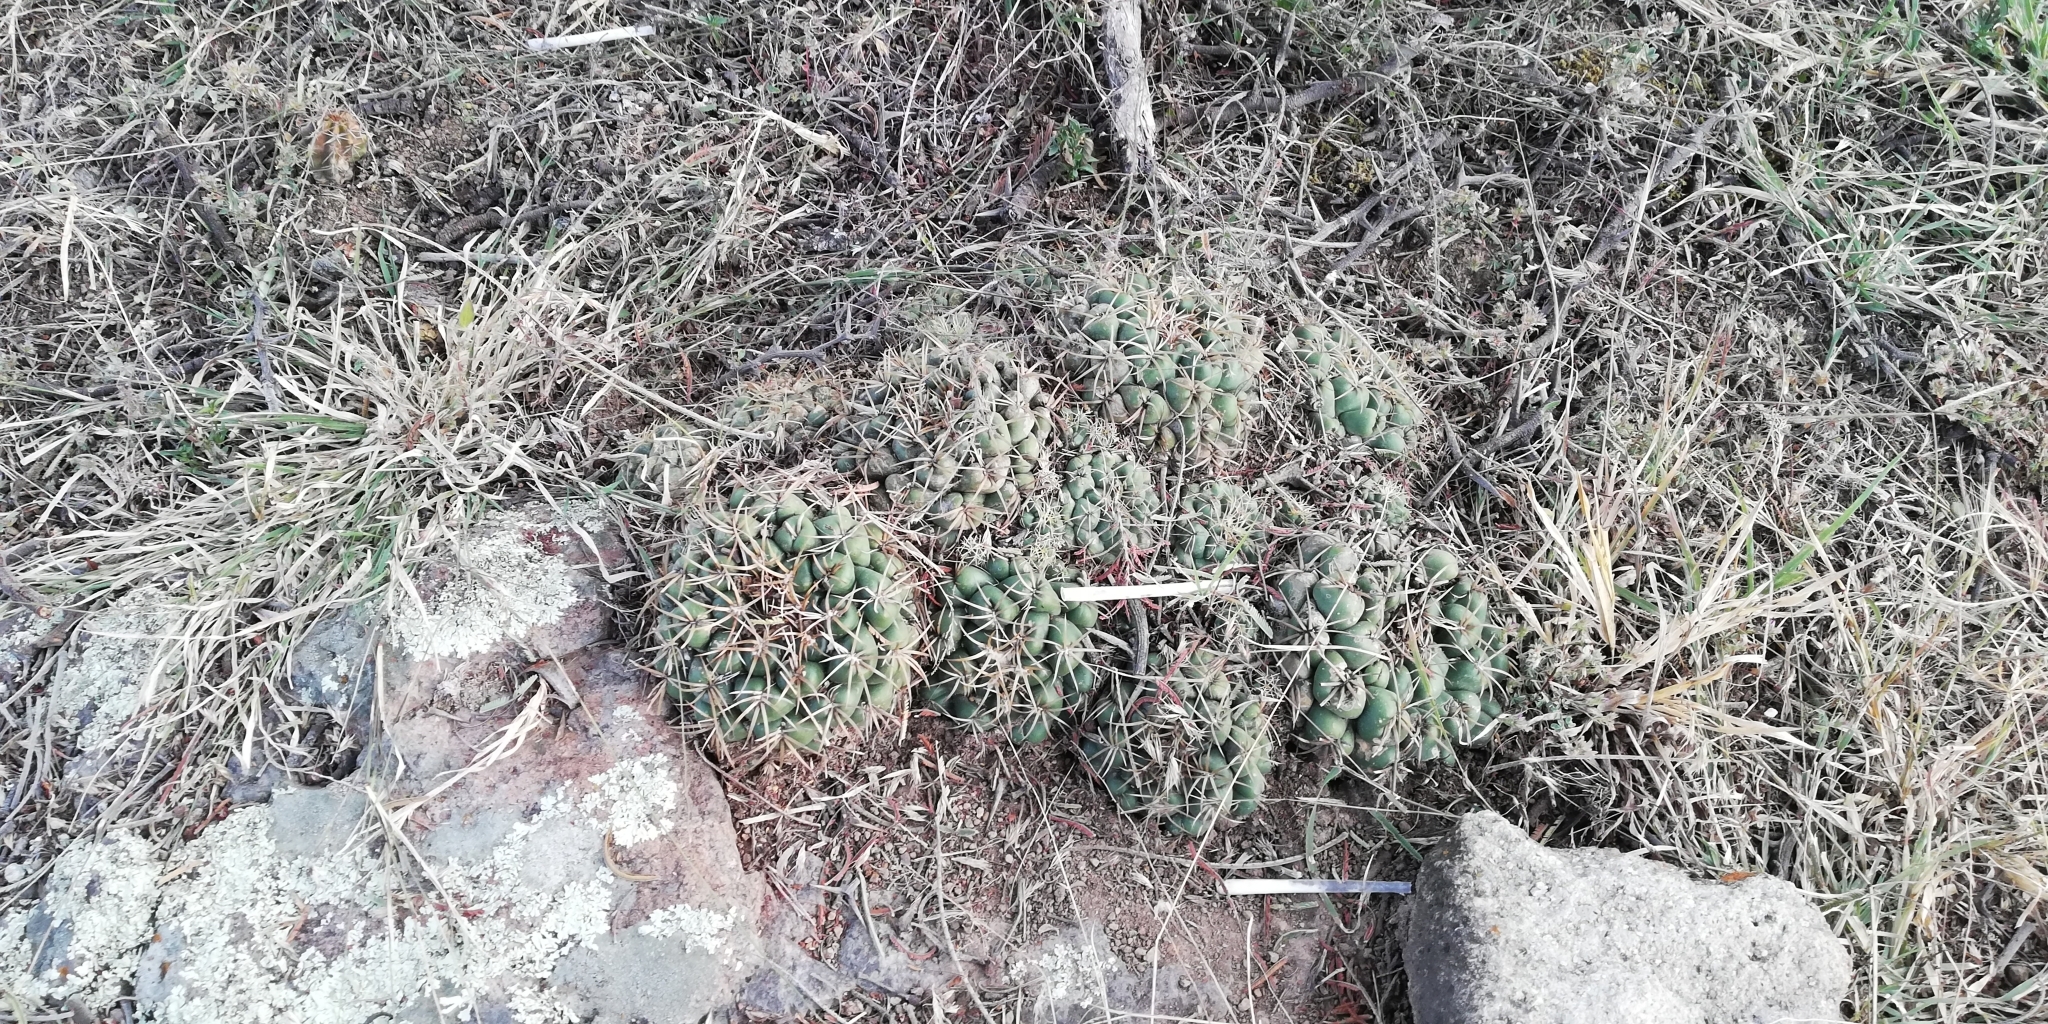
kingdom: Plantae
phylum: Tracheophyta
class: Magnoliopsida
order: Caryophyllales
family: Cactaceae
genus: Coryphantha
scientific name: Coryphantha elephantidens
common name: Elephant's tooth
